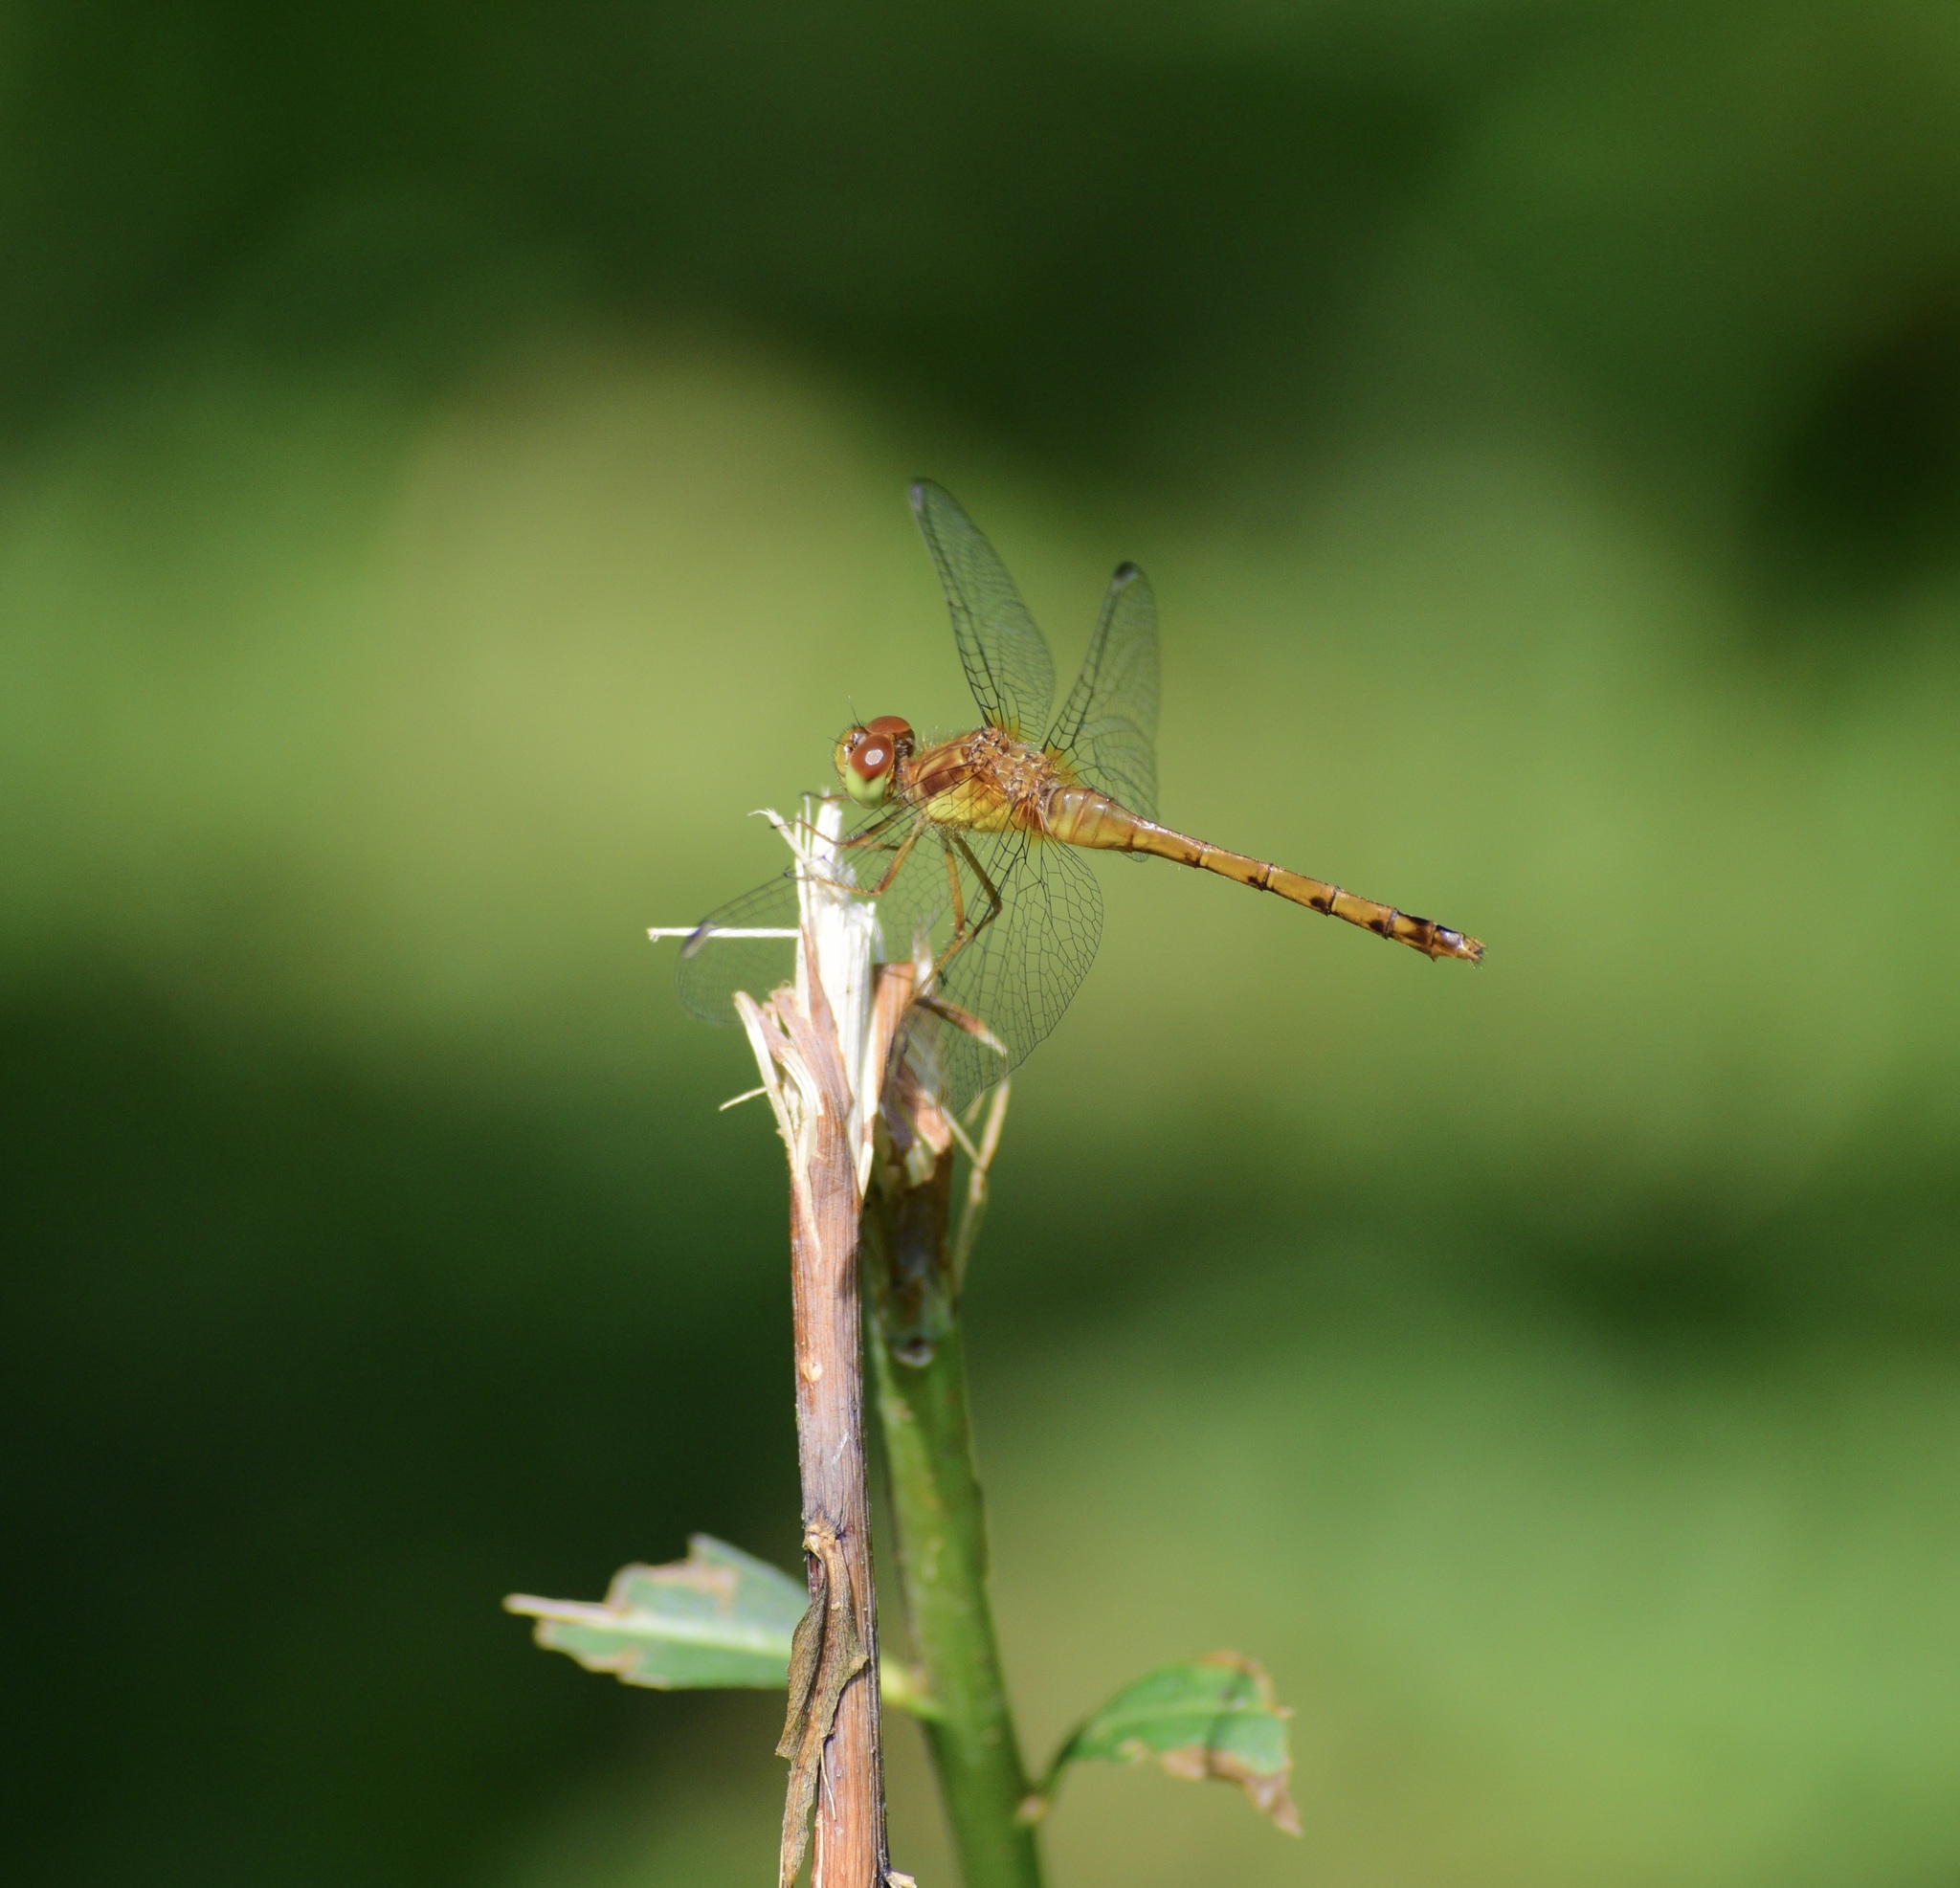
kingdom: Animalia
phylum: Arthropoda
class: Insecta
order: Odonata
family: Libellulidae
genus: Sympetrum
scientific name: Sympetrum vicinum
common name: Autumn meadowhawk
